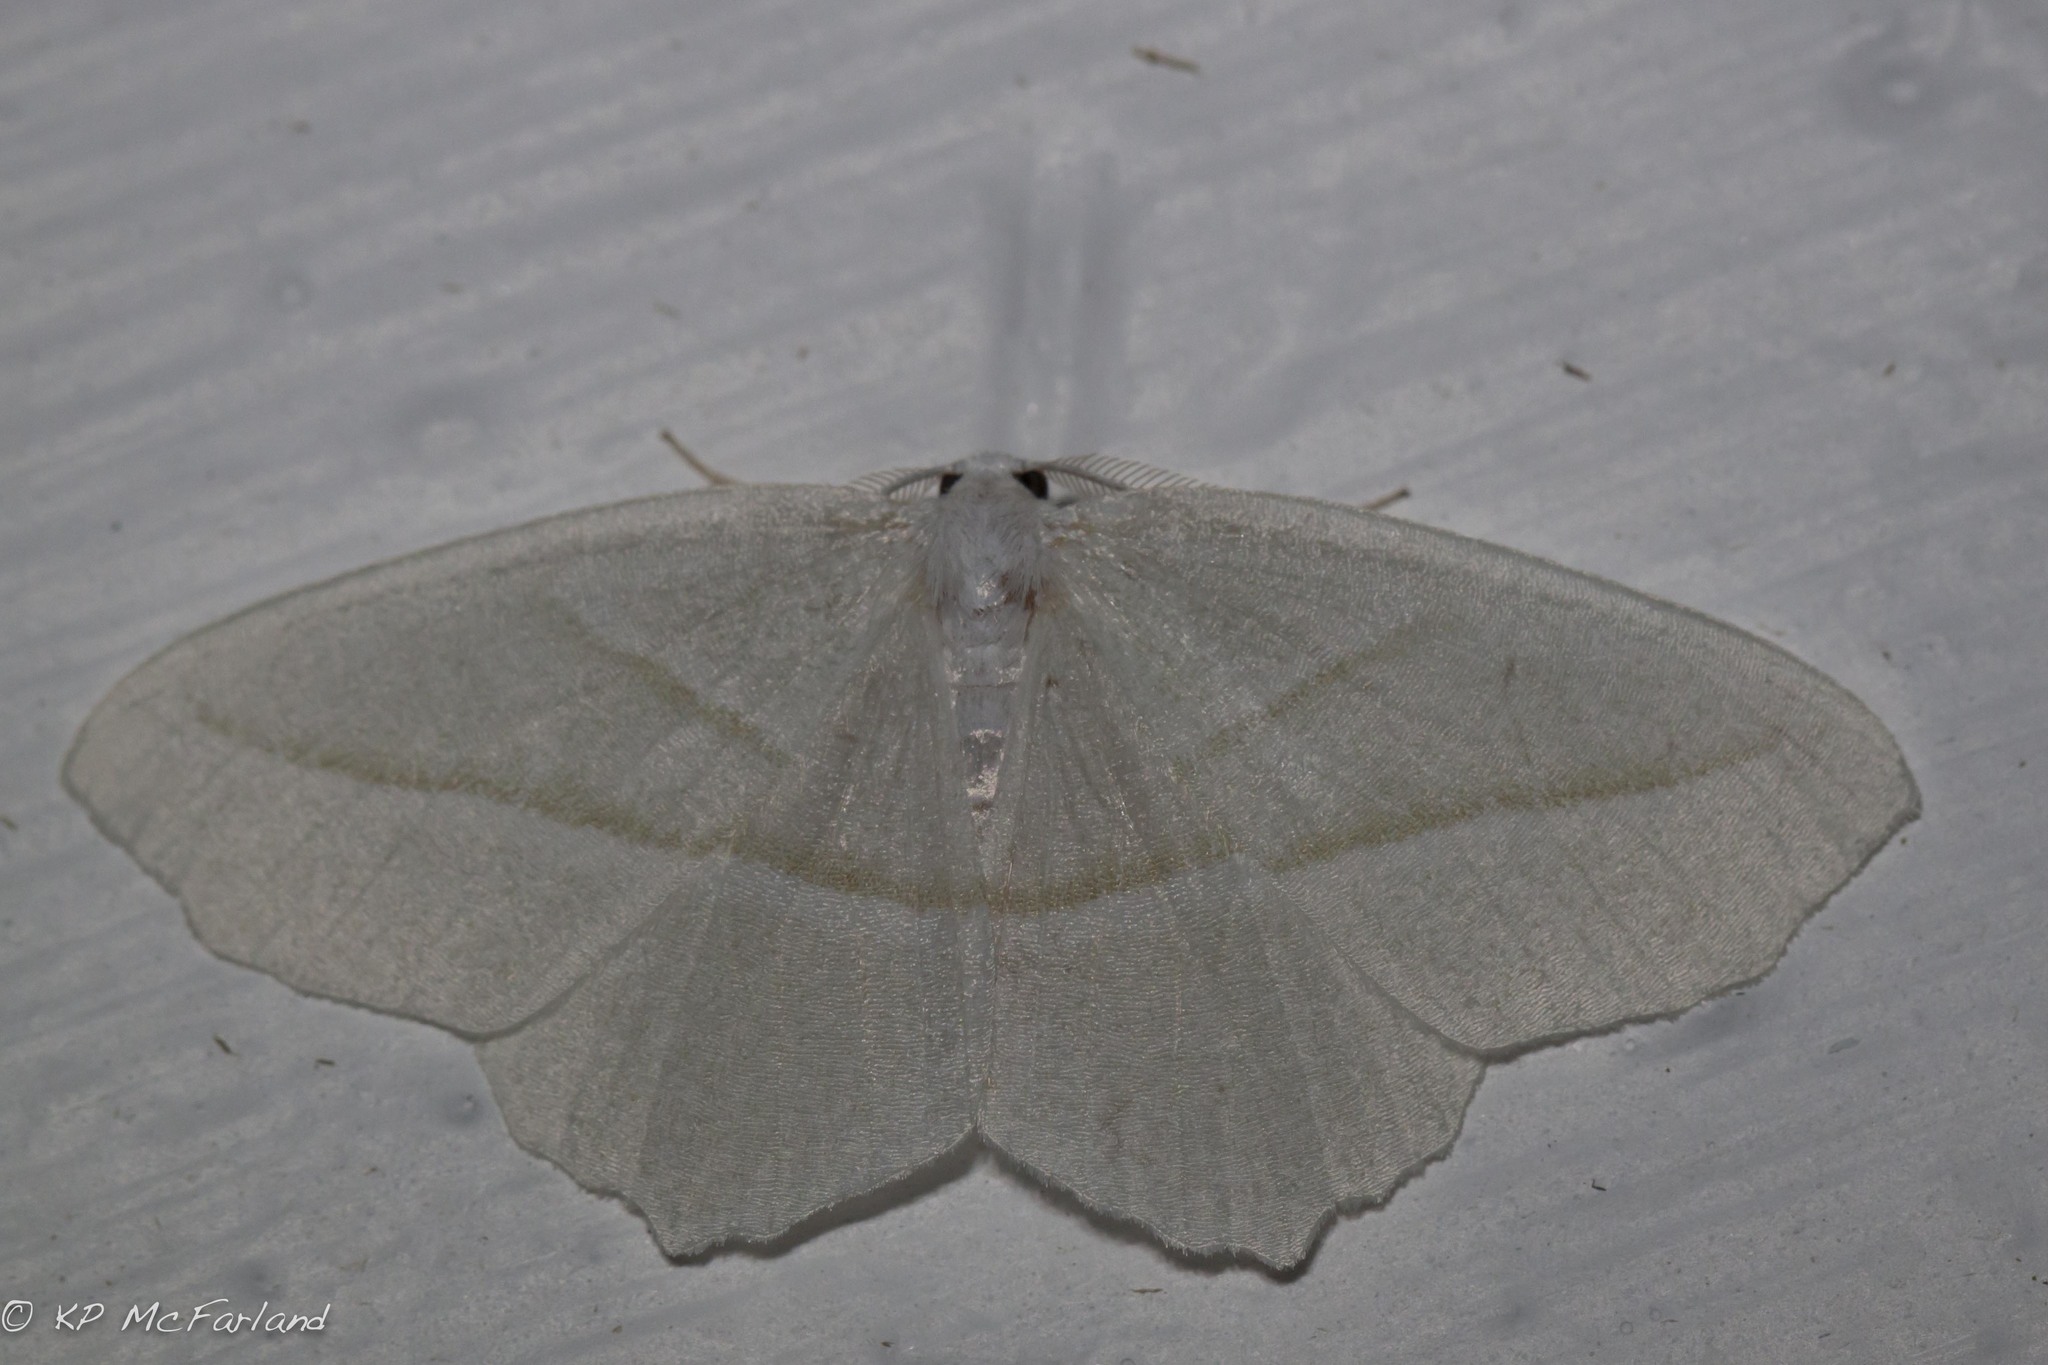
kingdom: Animalia
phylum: Arthropoda
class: Insecta
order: Lepidoptera
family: Geometridae
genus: Campaea
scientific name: Campaea perlata
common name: Fringed looper
